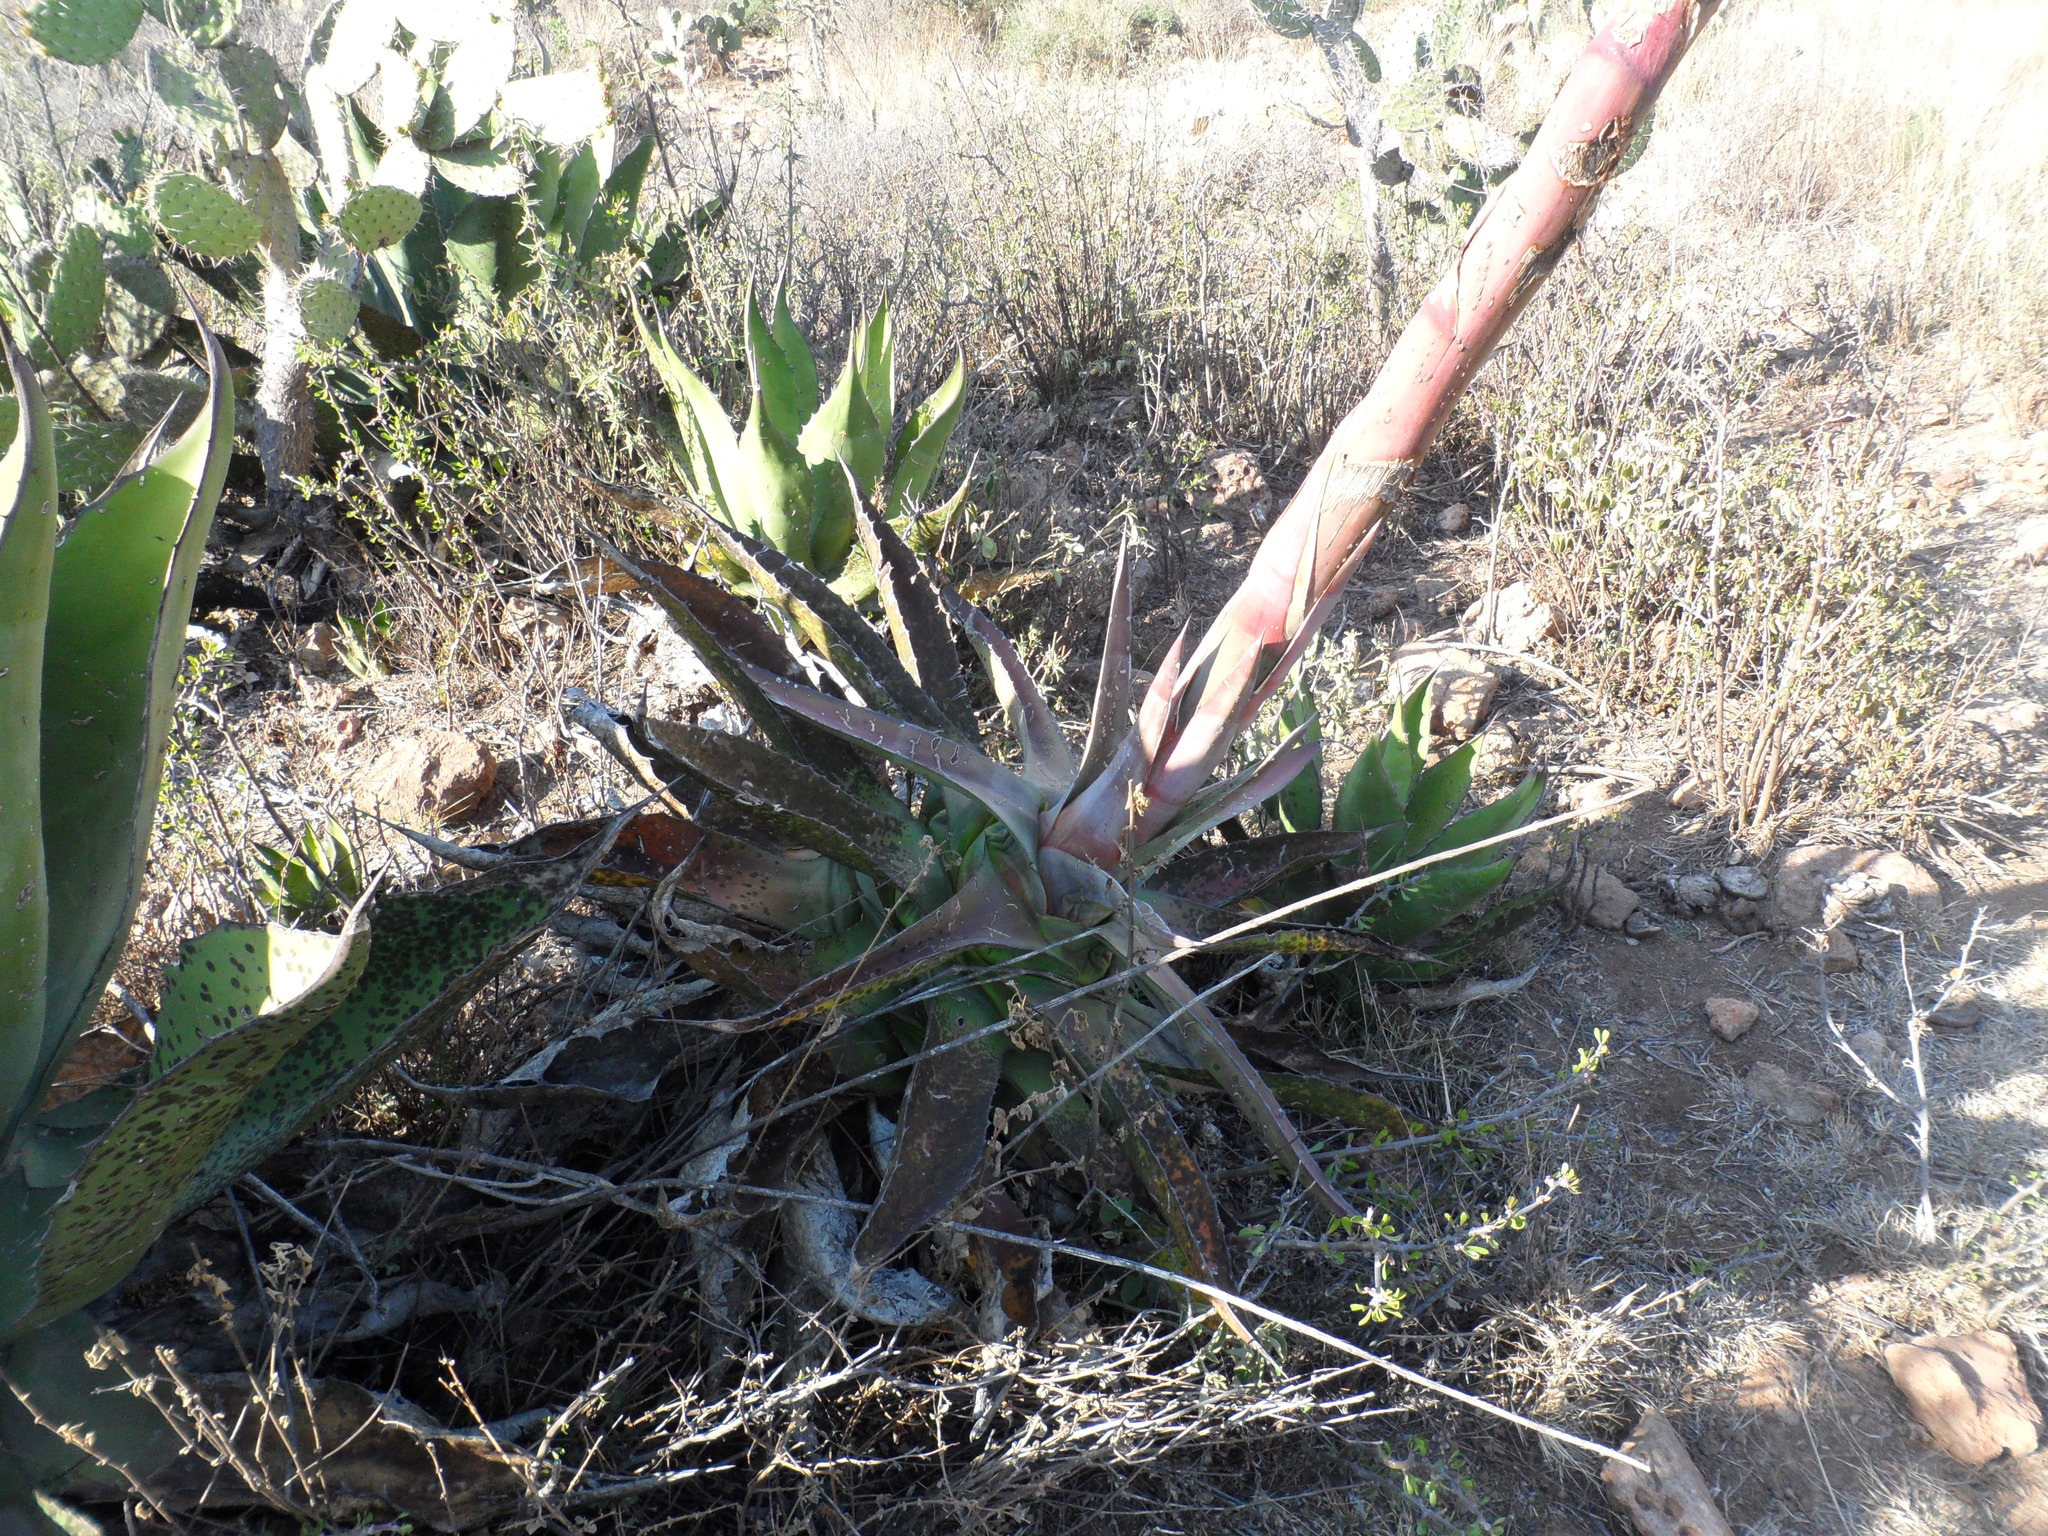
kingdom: Plantae
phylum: Tracheophyta
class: Liliopsida
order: Asparagales
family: Asparagaceae
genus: Agave
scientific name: Agave salmiana
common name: Pulque agave
